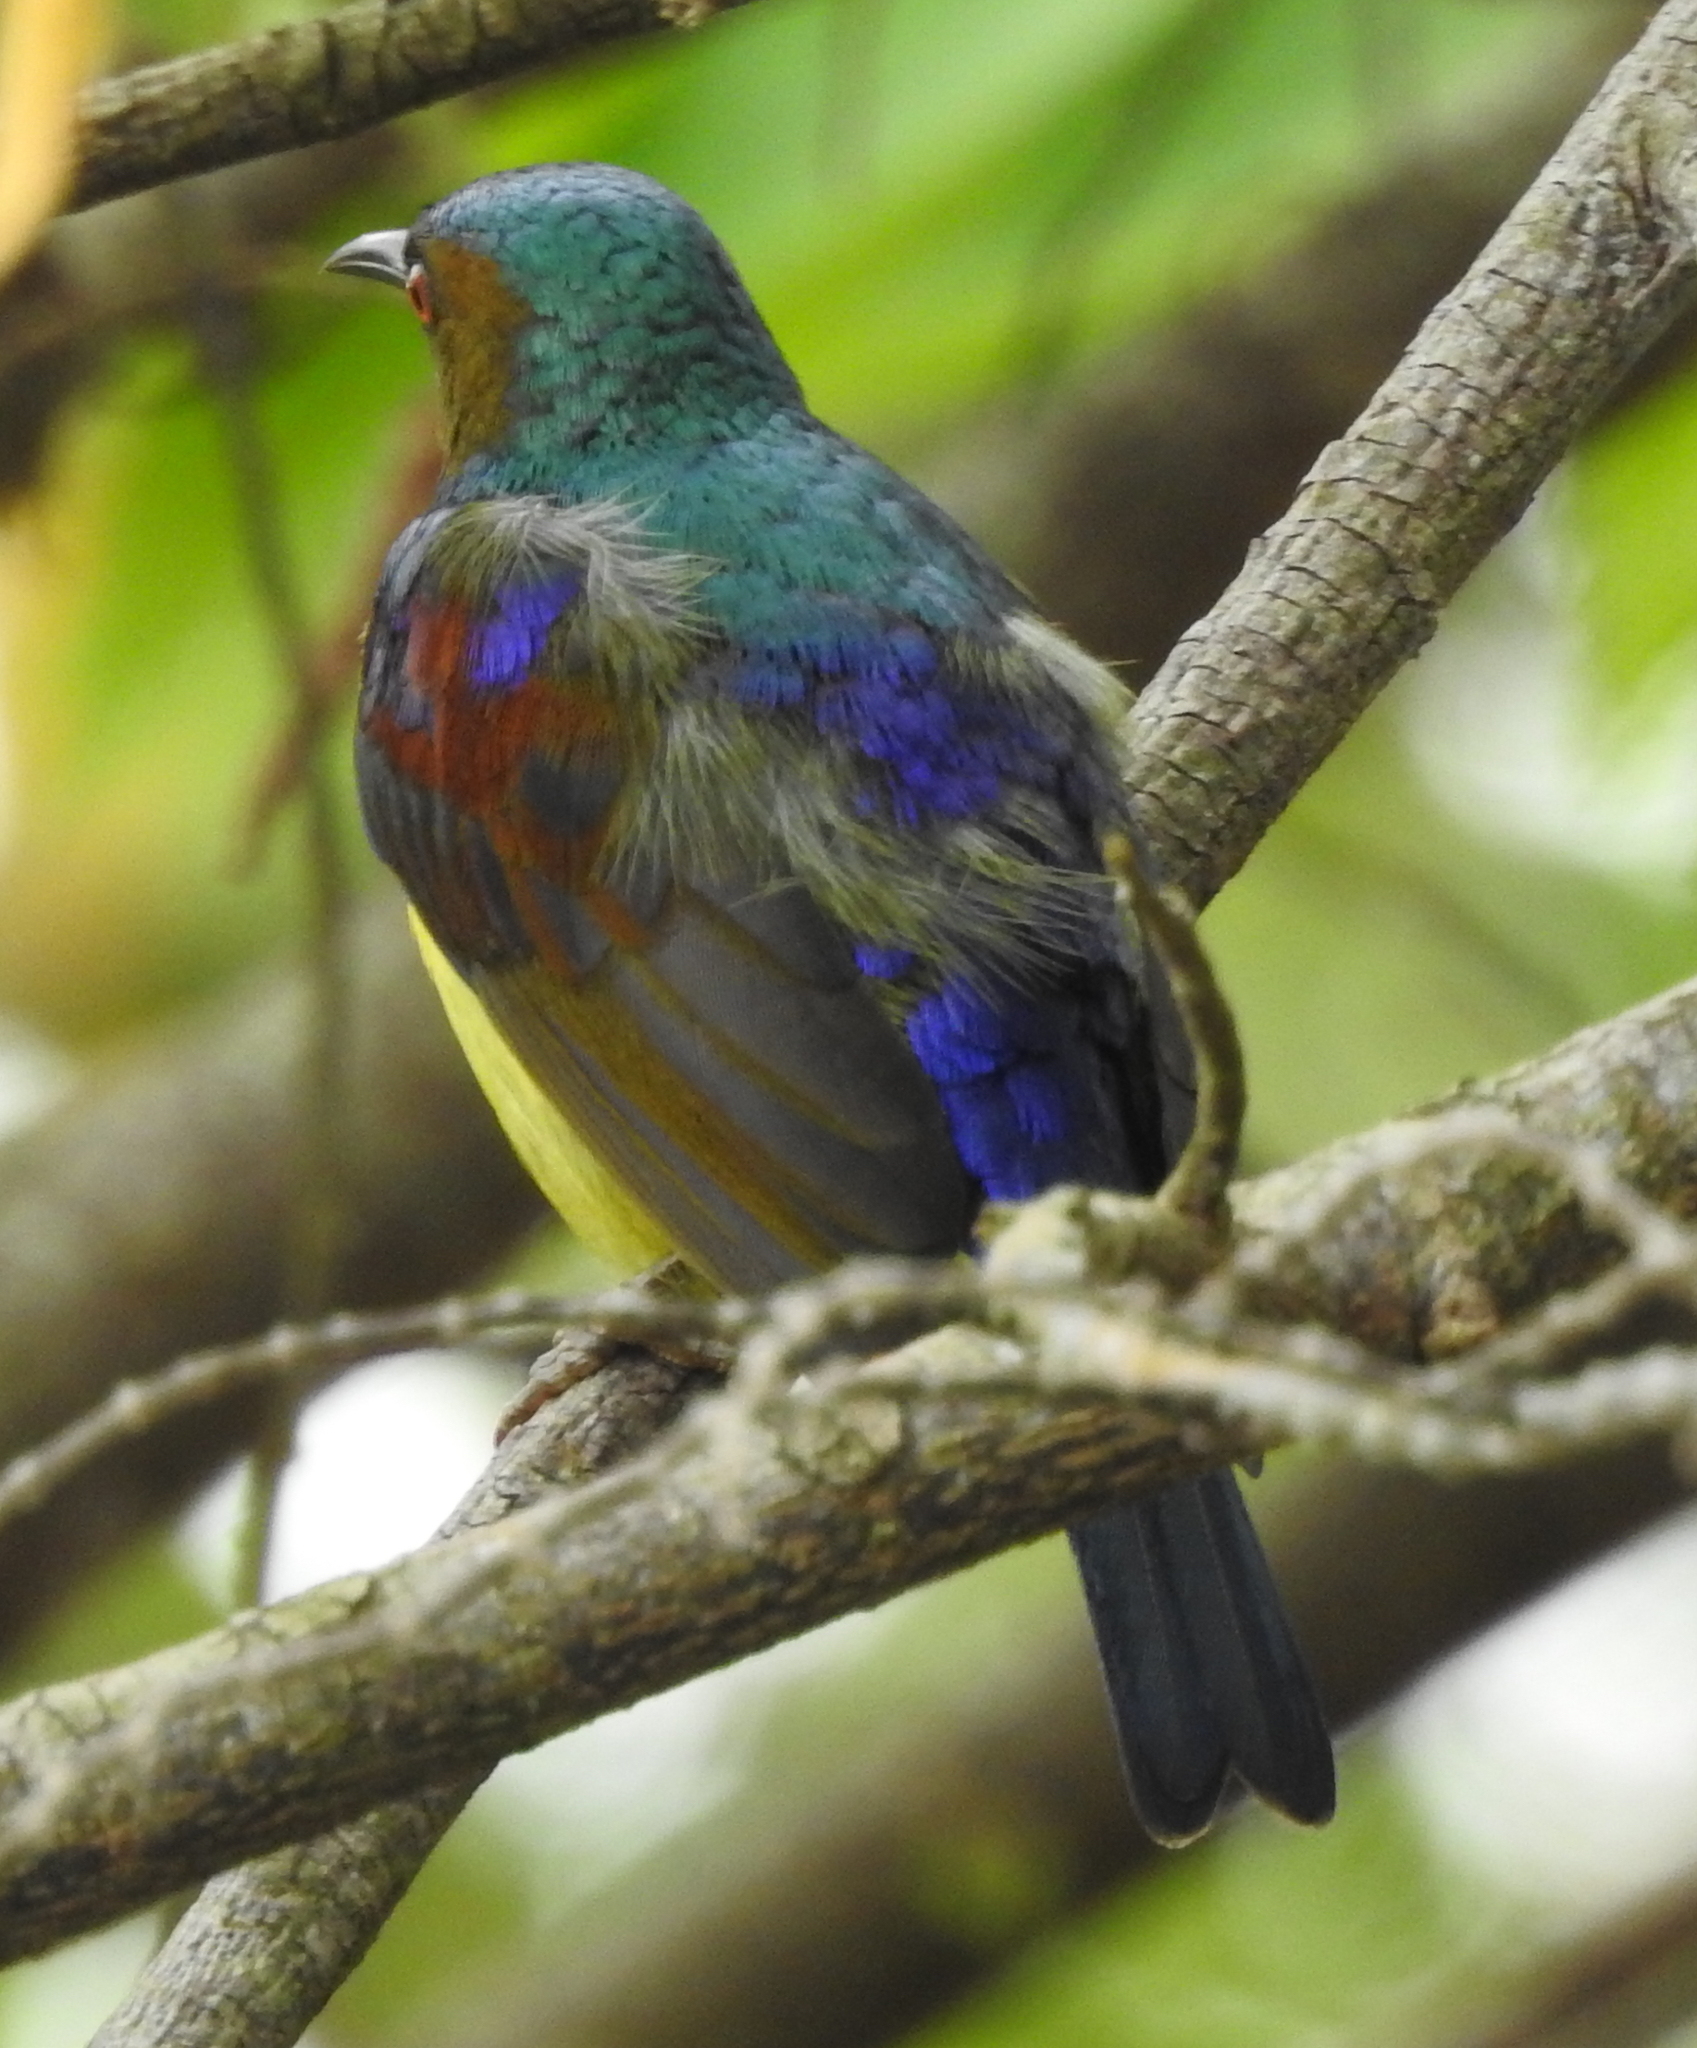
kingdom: Animalia
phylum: Chordata
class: Aves
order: Passeriformes
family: Nectariniidae
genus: Anthreptes
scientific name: Anthreptes malacensis
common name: Brown-throated sunbird
